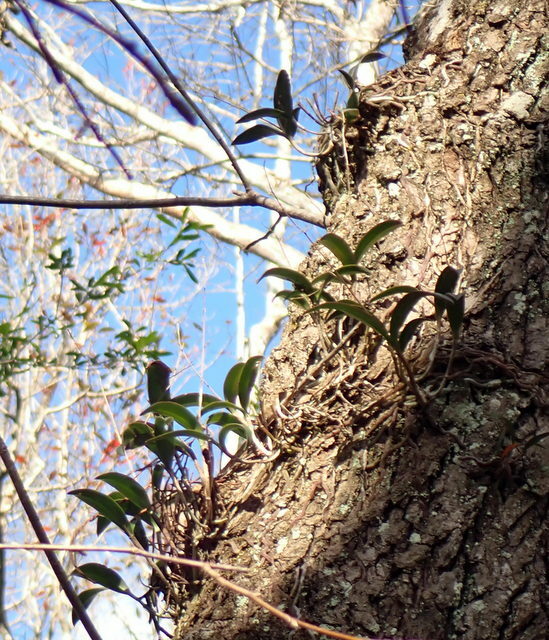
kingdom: Plantae
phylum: Tracheophyta
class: Liliopsida
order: Asparagales
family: Orchidaceae
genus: Epidendrum
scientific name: Epidendrum conopseum
